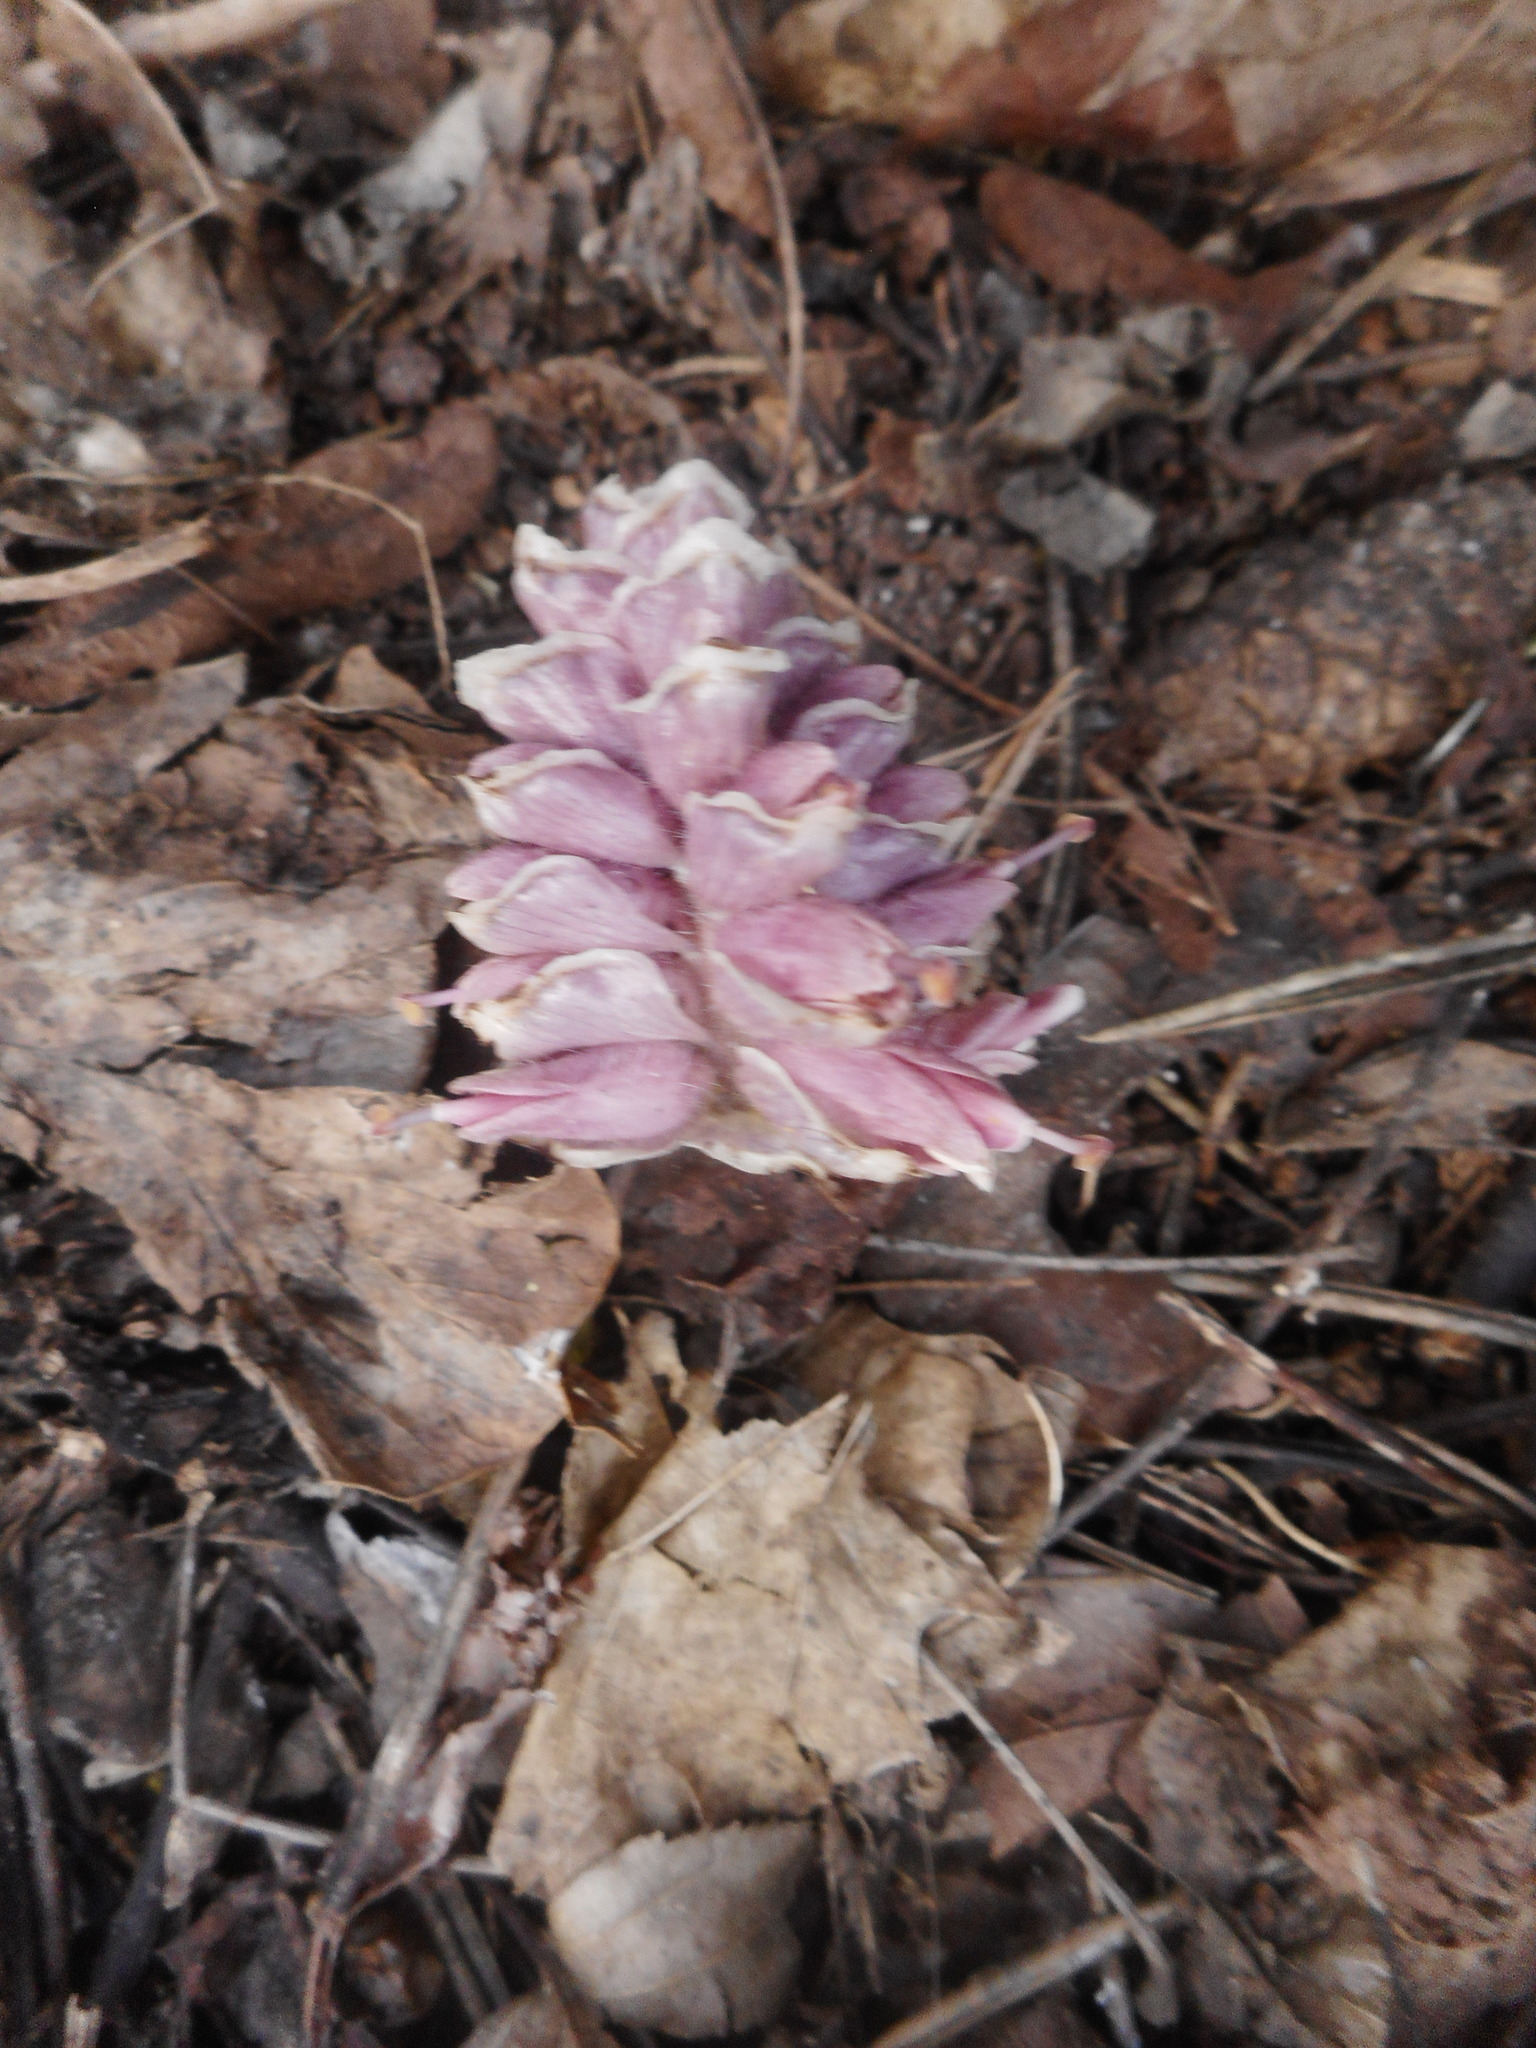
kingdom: Plantae
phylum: Tracheophyta
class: Magnoliopsida
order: Lamiales
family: Orobanchaceae
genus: Lathraea
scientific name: Lathraea squamaria
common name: Toothwort
